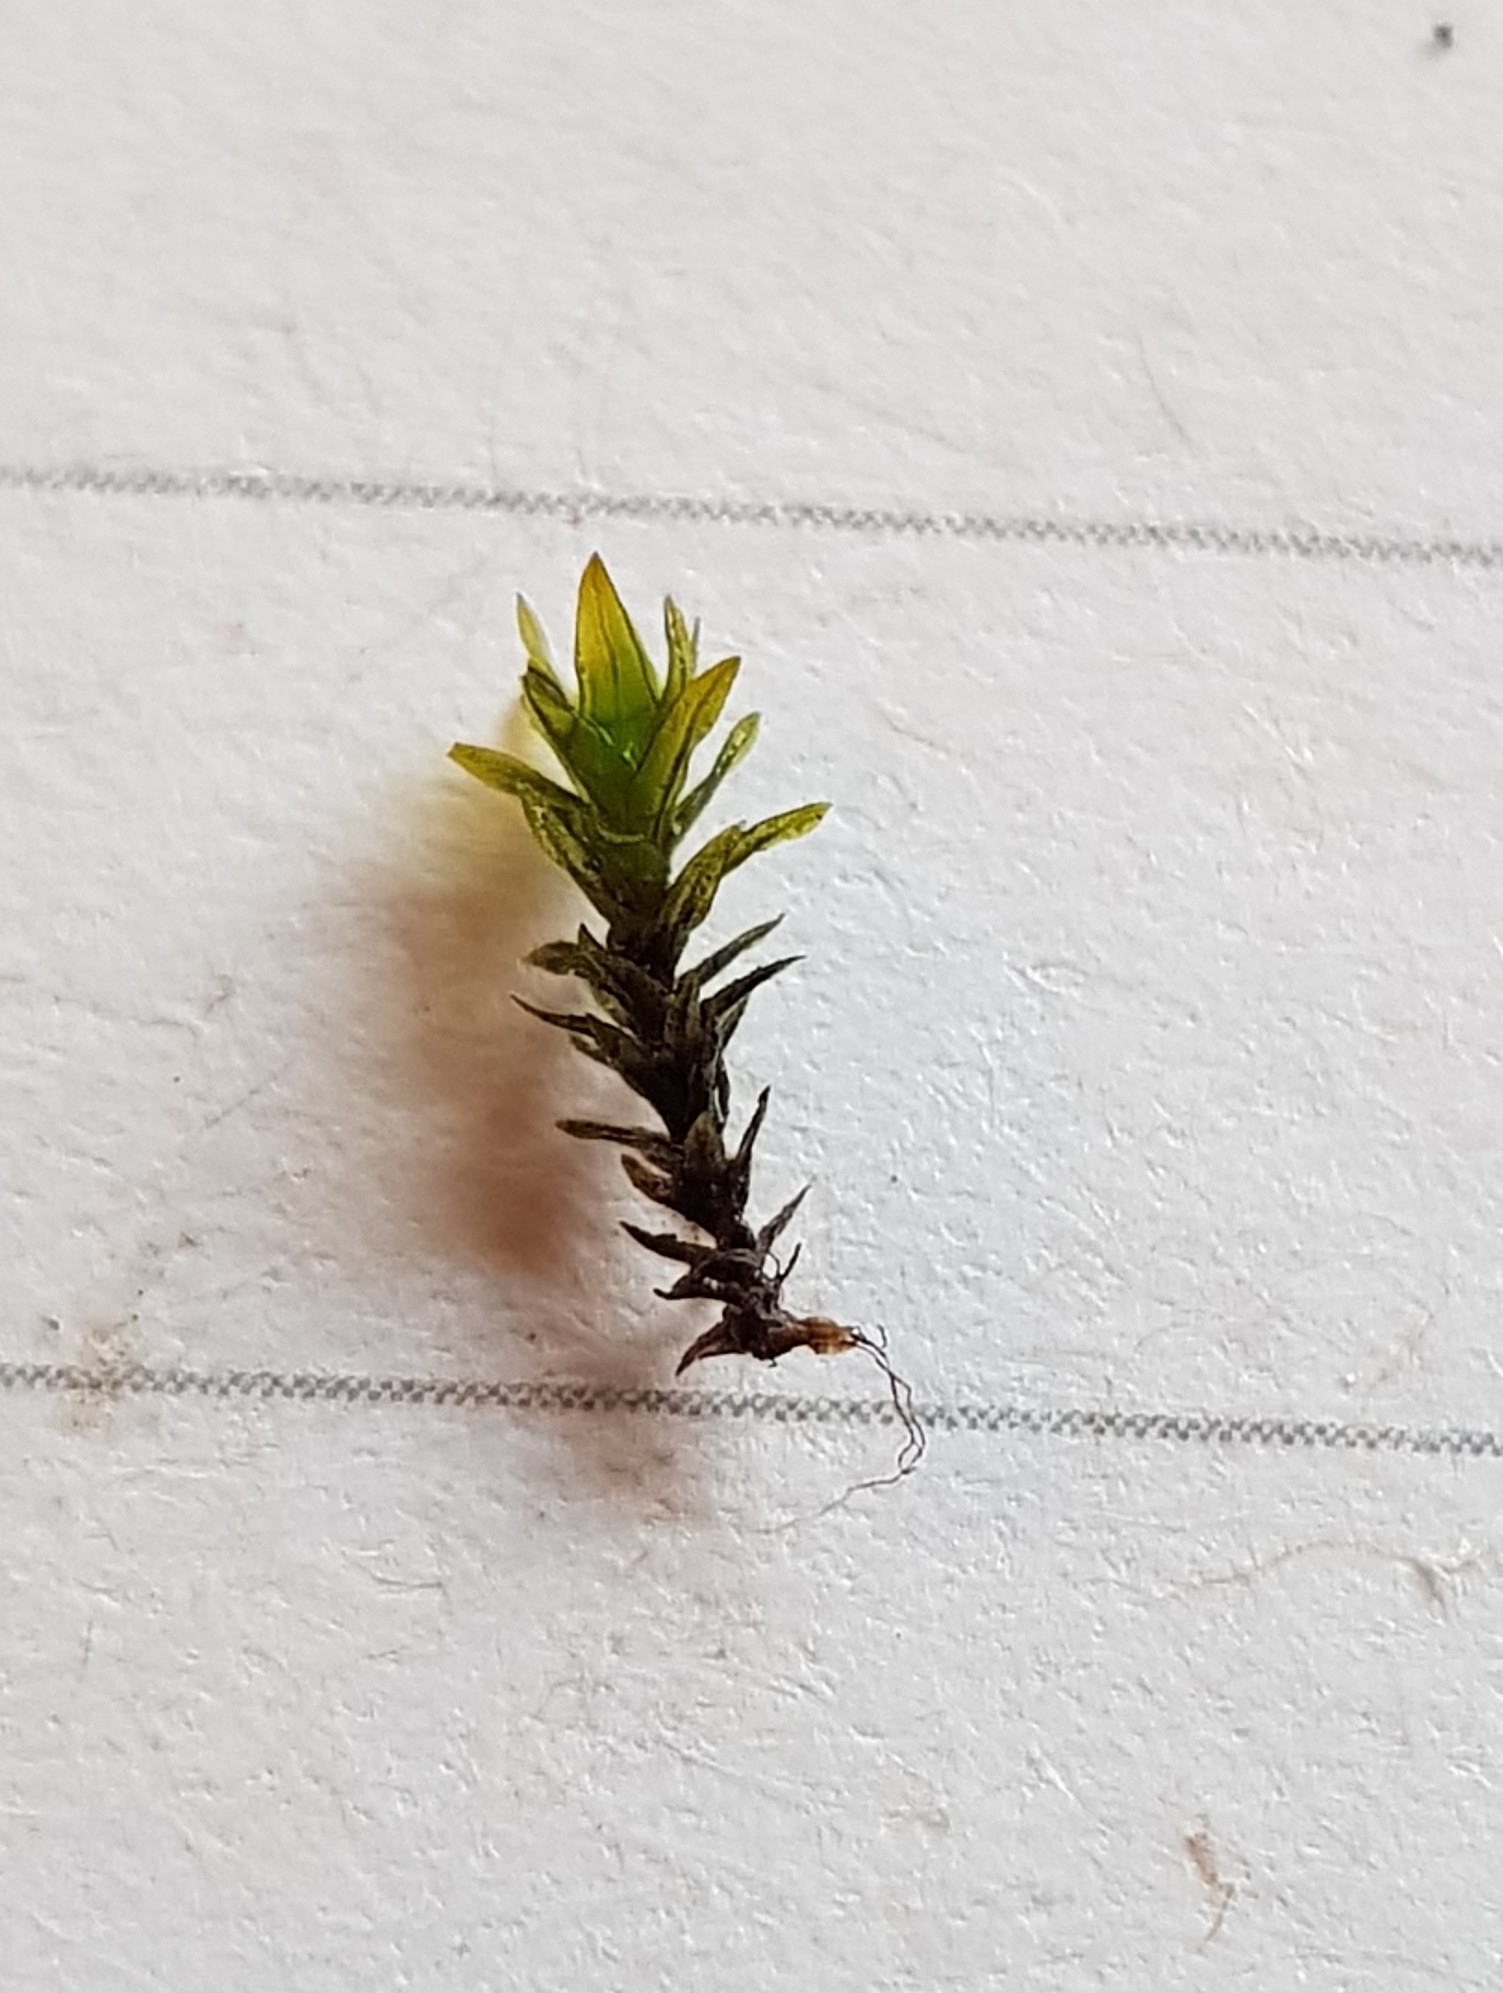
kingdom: Plantae
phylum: Bryophyta
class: Bryopsida
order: Pottiales
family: Pottiaceae
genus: Geheebia
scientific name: Geheebia tophacea
